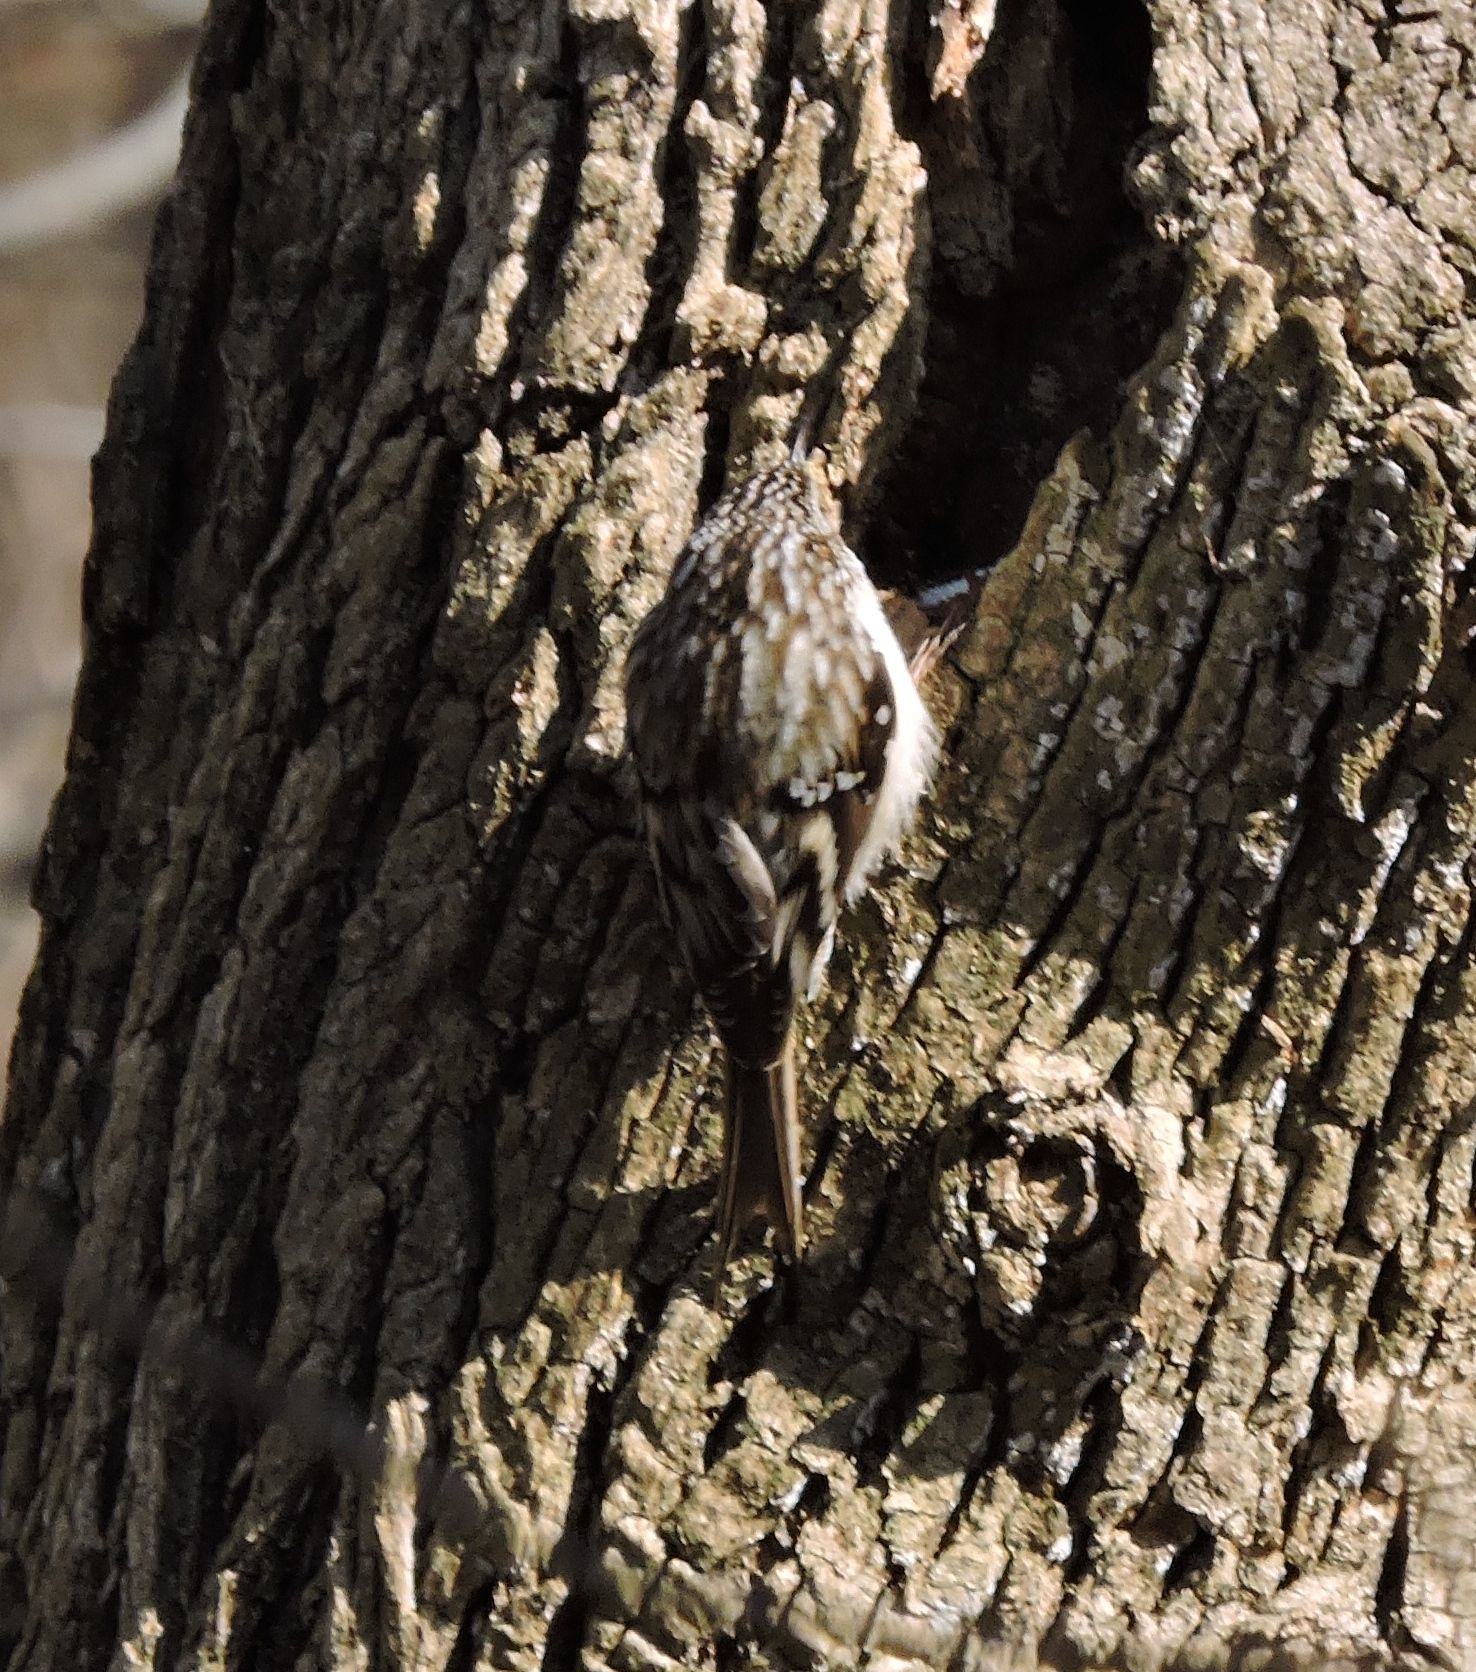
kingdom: Animalia
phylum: Chordata
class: Aves
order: Passeriformes
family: Certhiidae
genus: Certhia
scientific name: Certhia americana
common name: Brown creeper
